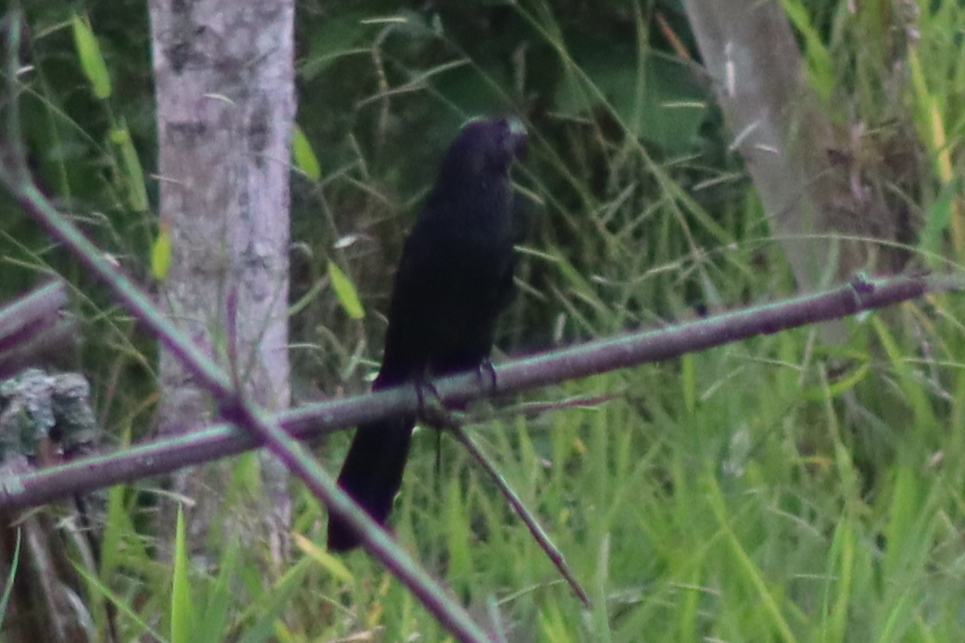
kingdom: Animalia
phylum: Chordata
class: Aves
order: Cuculiformes
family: Cuculidae
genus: Crotophaga
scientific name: Crotophaga ani
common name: Smooth-billed ani
